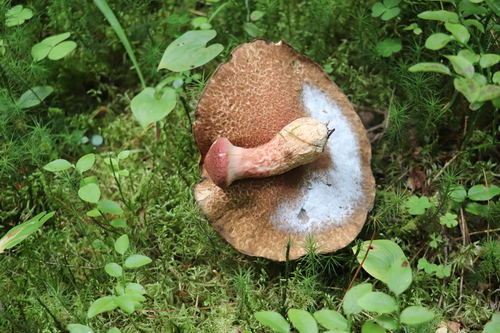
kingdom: Fungi
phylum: Basidiomycota
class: Agaricomycetes
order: Boletales
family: Suillaceae
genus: Suillus
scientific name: Suillus spraguei
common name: Painted suillus
